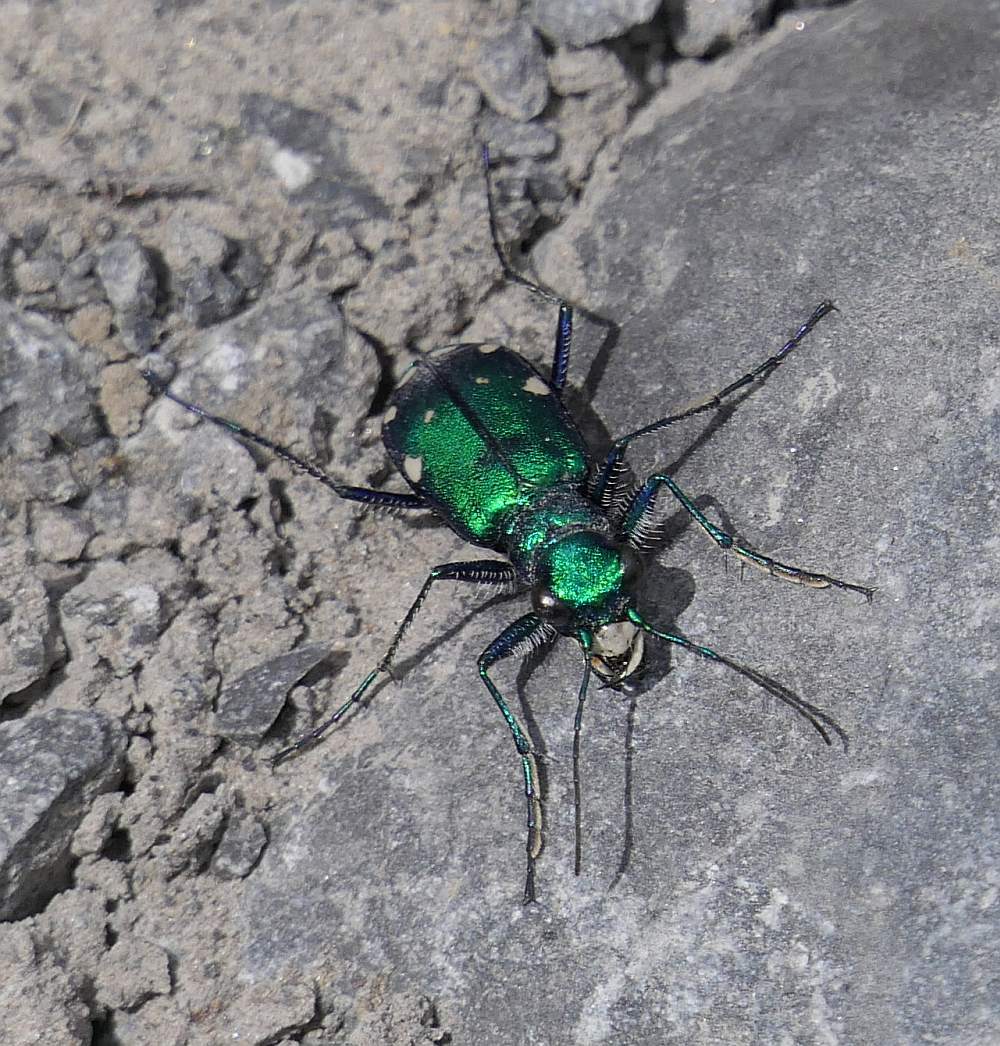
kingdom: Animalia
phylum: Arthropoda
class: Insecta
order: Coleoptera
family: Carabidae
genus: Cicindela
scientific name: Cicindela sexguttata
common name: Six-spotted tiger beetle
